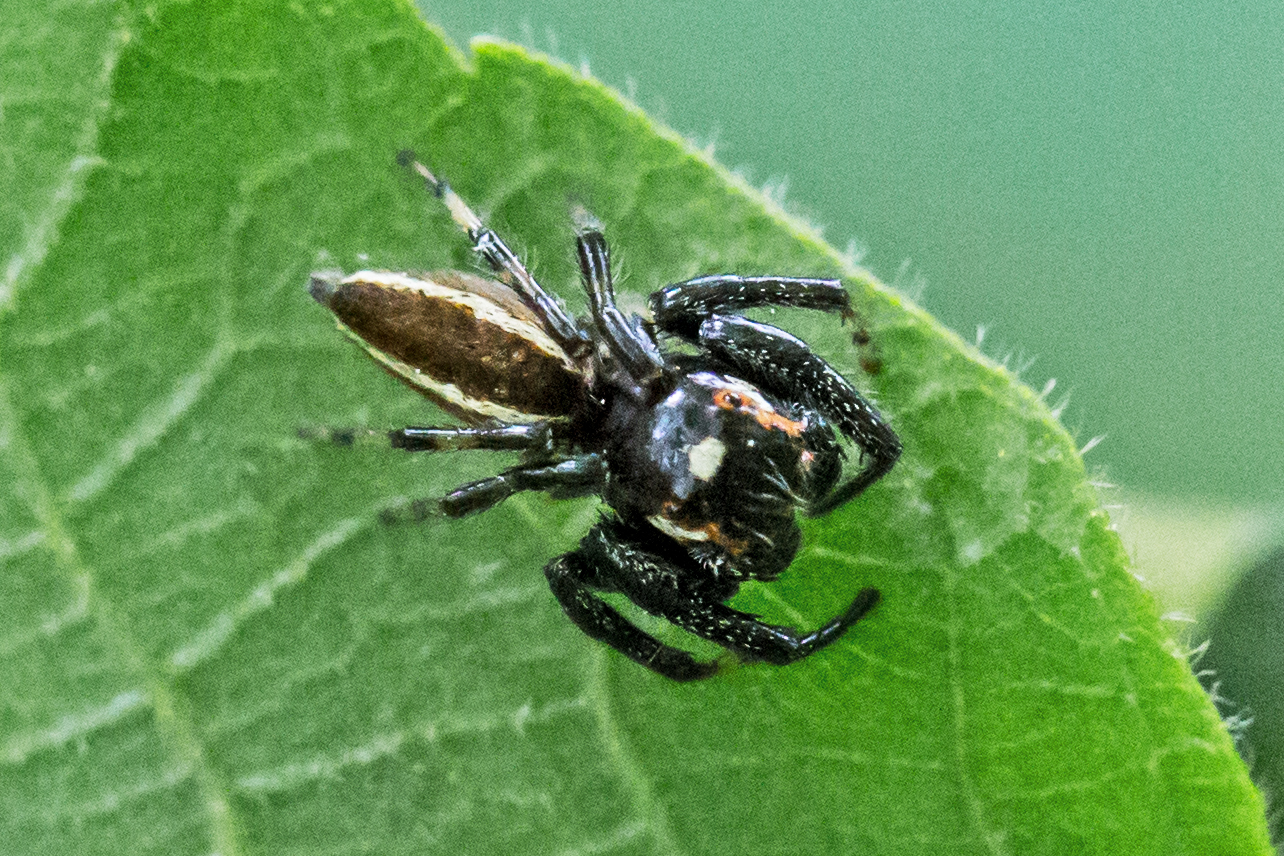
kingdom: Animalia
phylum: Arthropoda
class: Arachnida
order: Araneae
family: Salticidae
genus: Colonus
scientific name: Colonus sylvanus
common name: Jumping spiders
